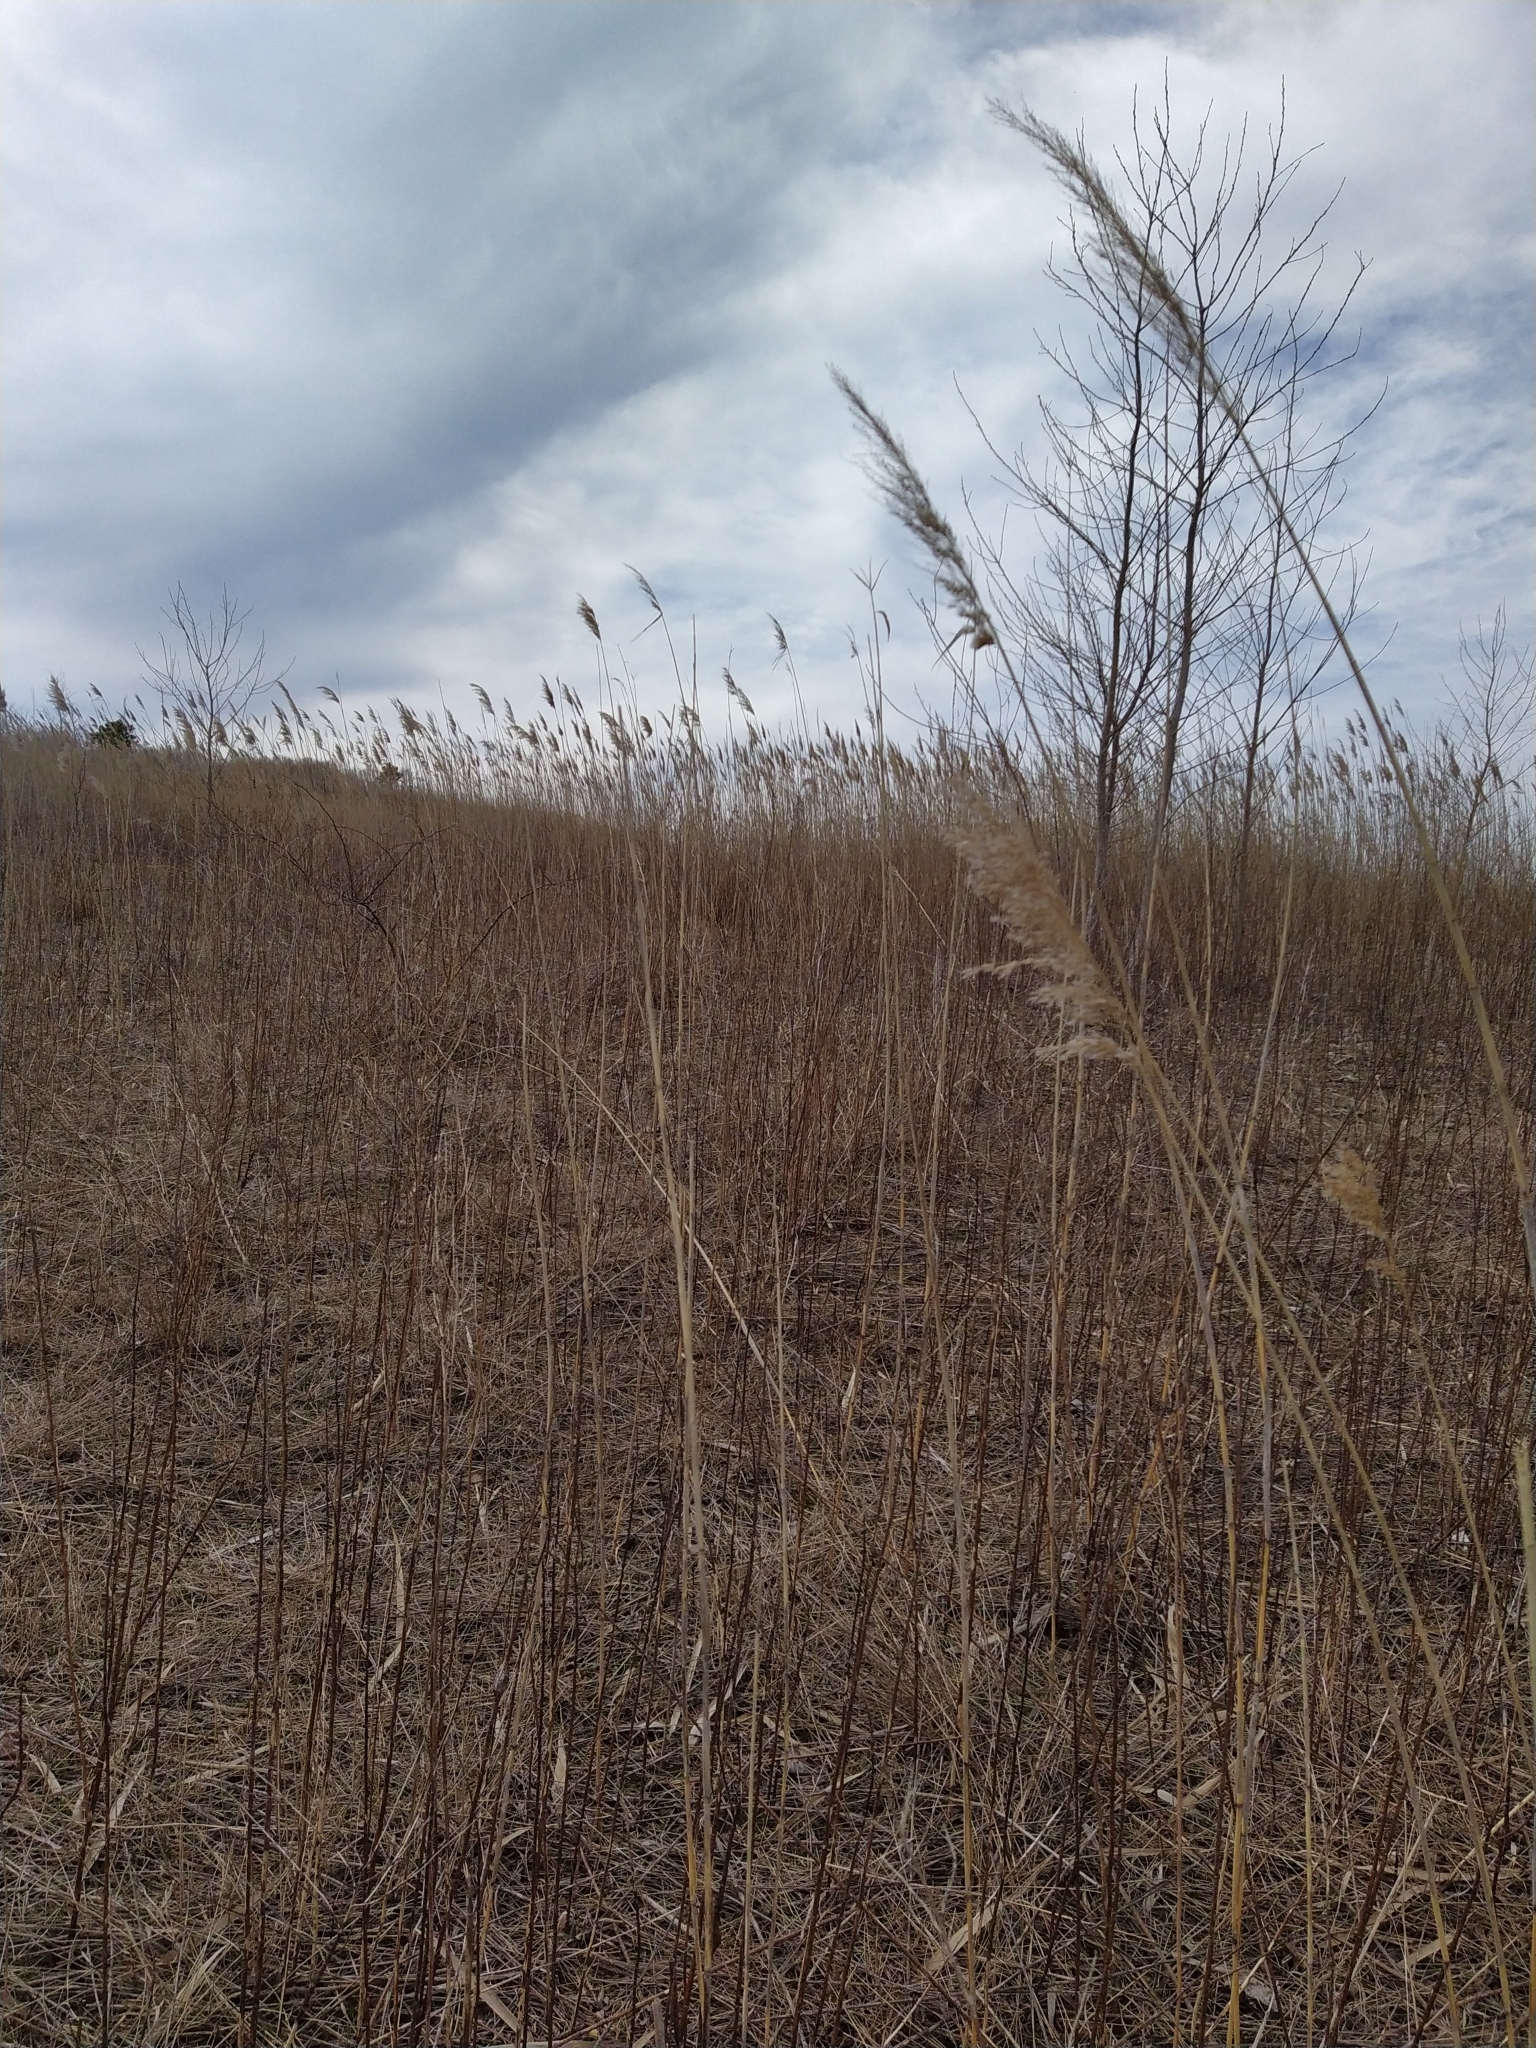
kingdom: Plantae
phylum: Tracheophyta
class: Liliopsida
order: Poales
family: Poaceae
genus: Phragmites
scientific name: Phragmites australis
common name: Common reed
